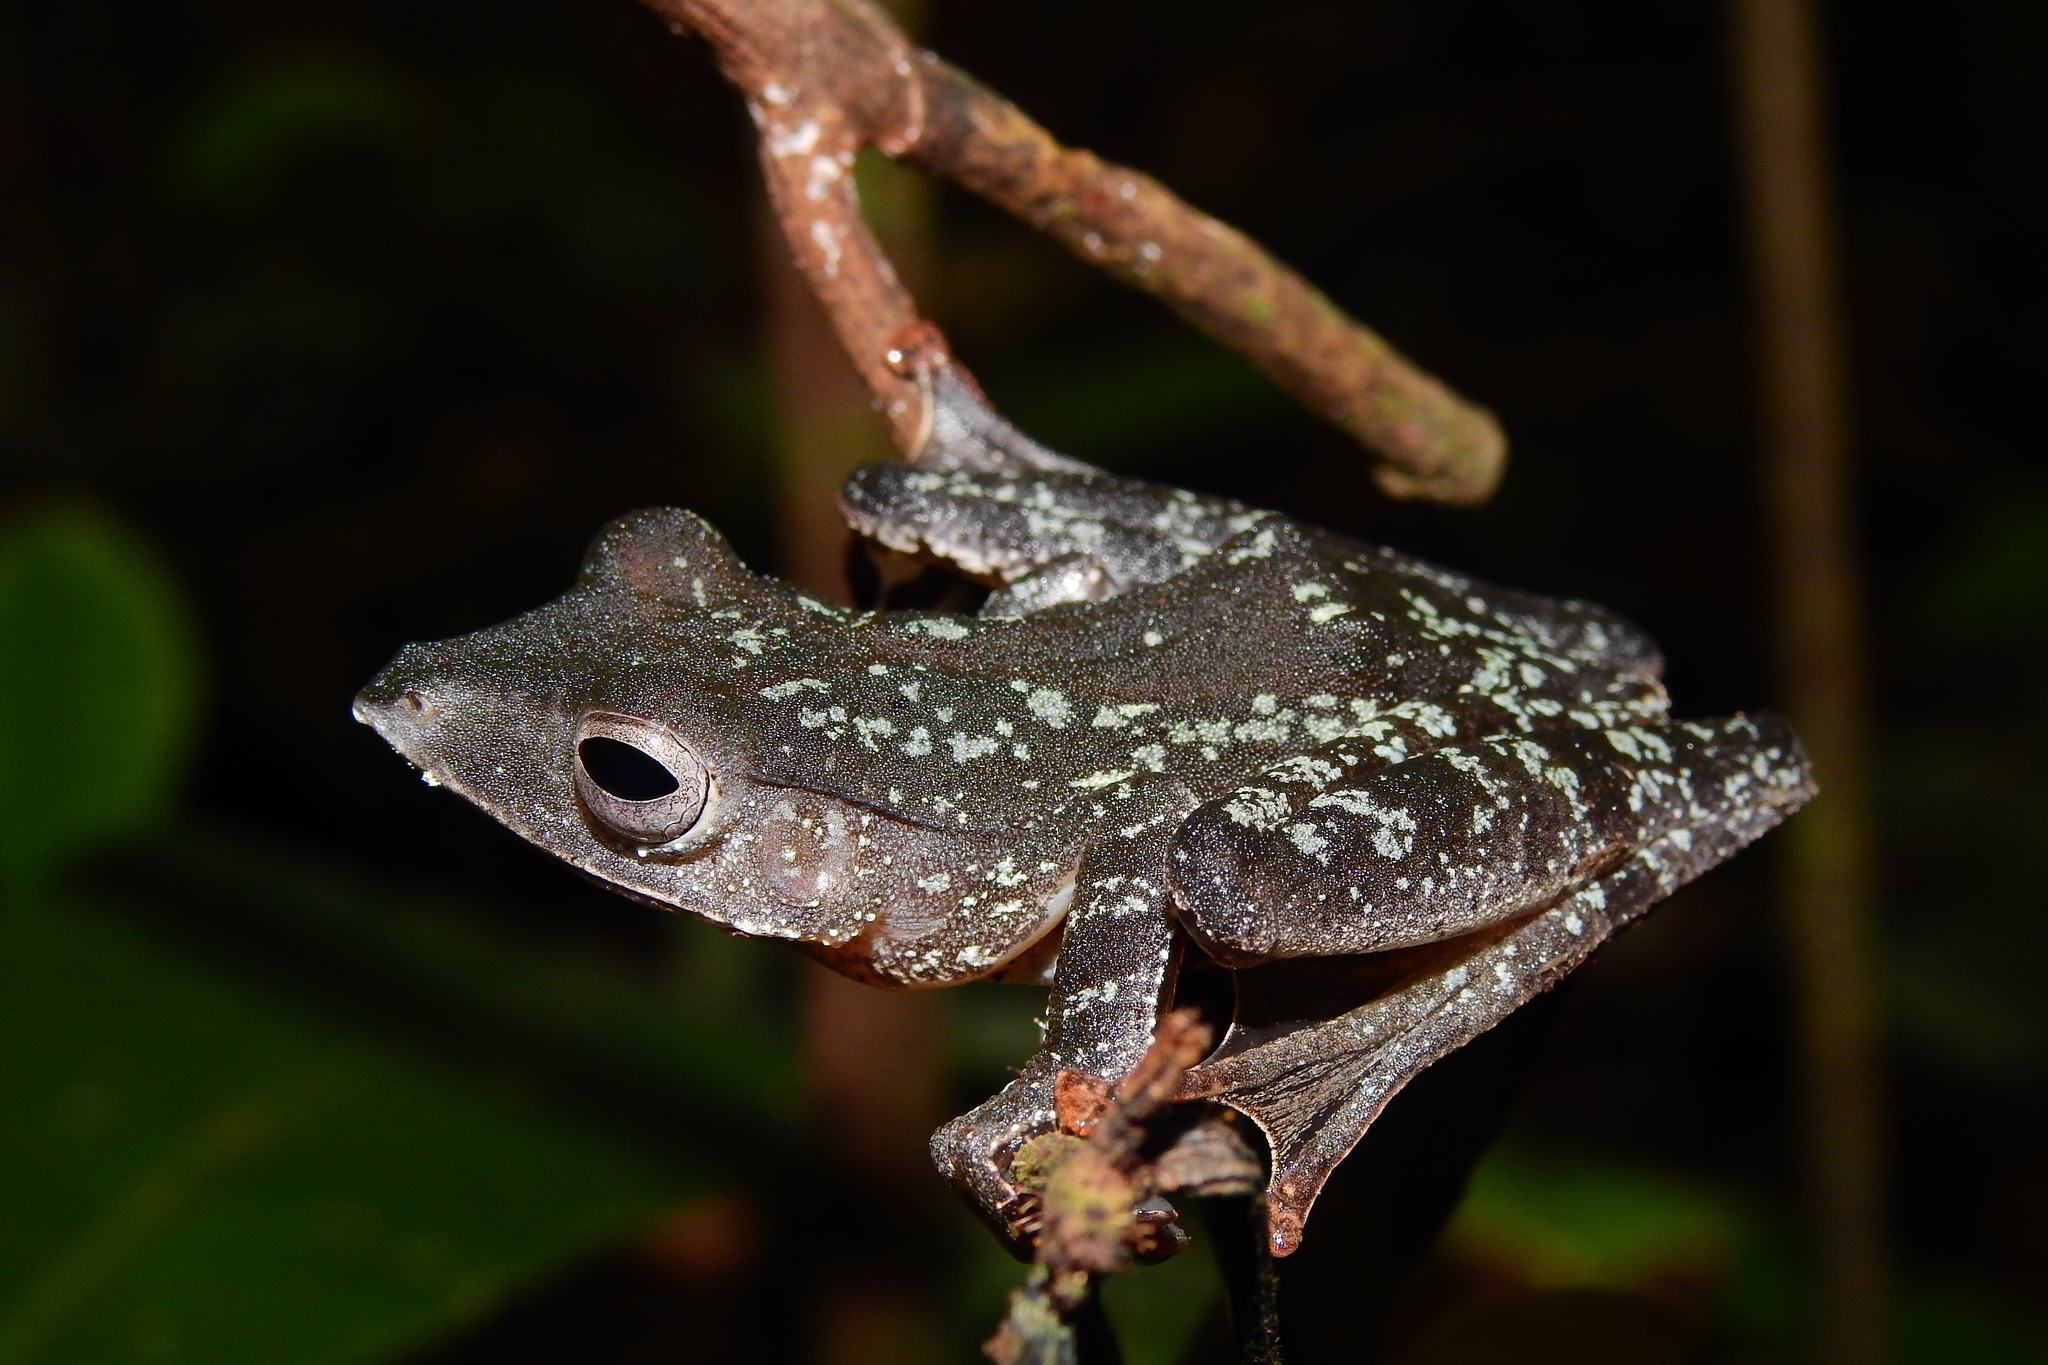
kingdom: Animalia
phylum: Chordata
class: Amphibia
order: Anura
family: Rhacophoridae
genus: Polypedates
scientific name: Polypedates pseudotilophus
